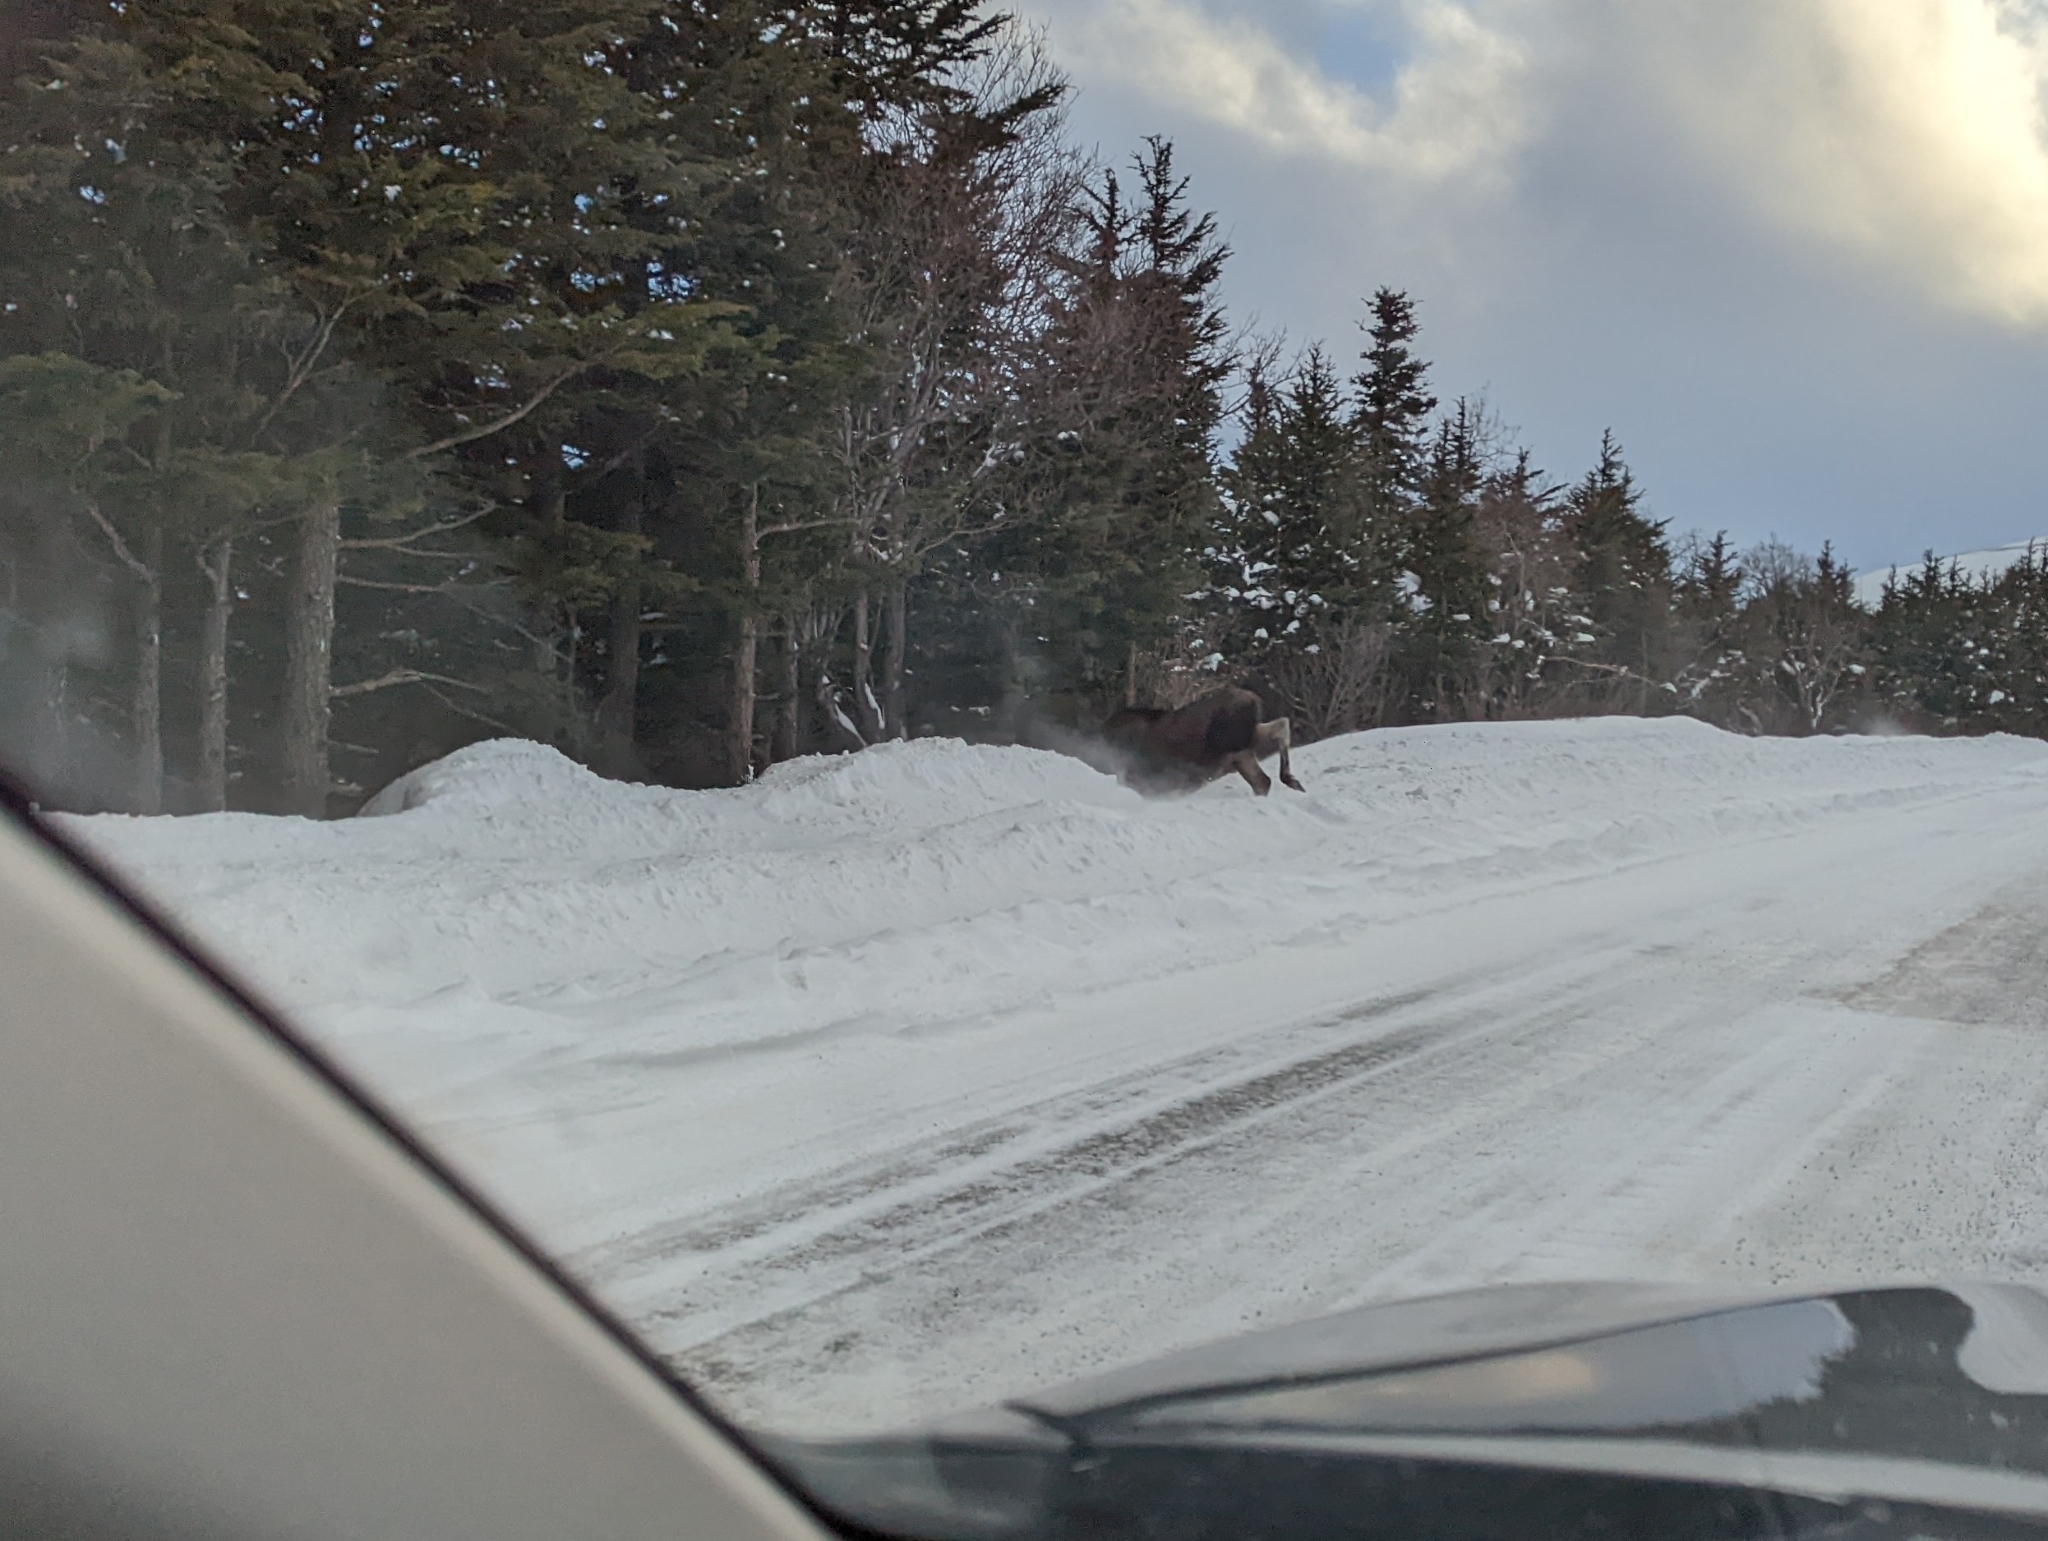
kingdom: Animalia
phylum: Chordata
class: Mammalia
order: Artiodactyla
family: Cervidae
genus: Alces
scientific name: Alces alces
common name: Moose
